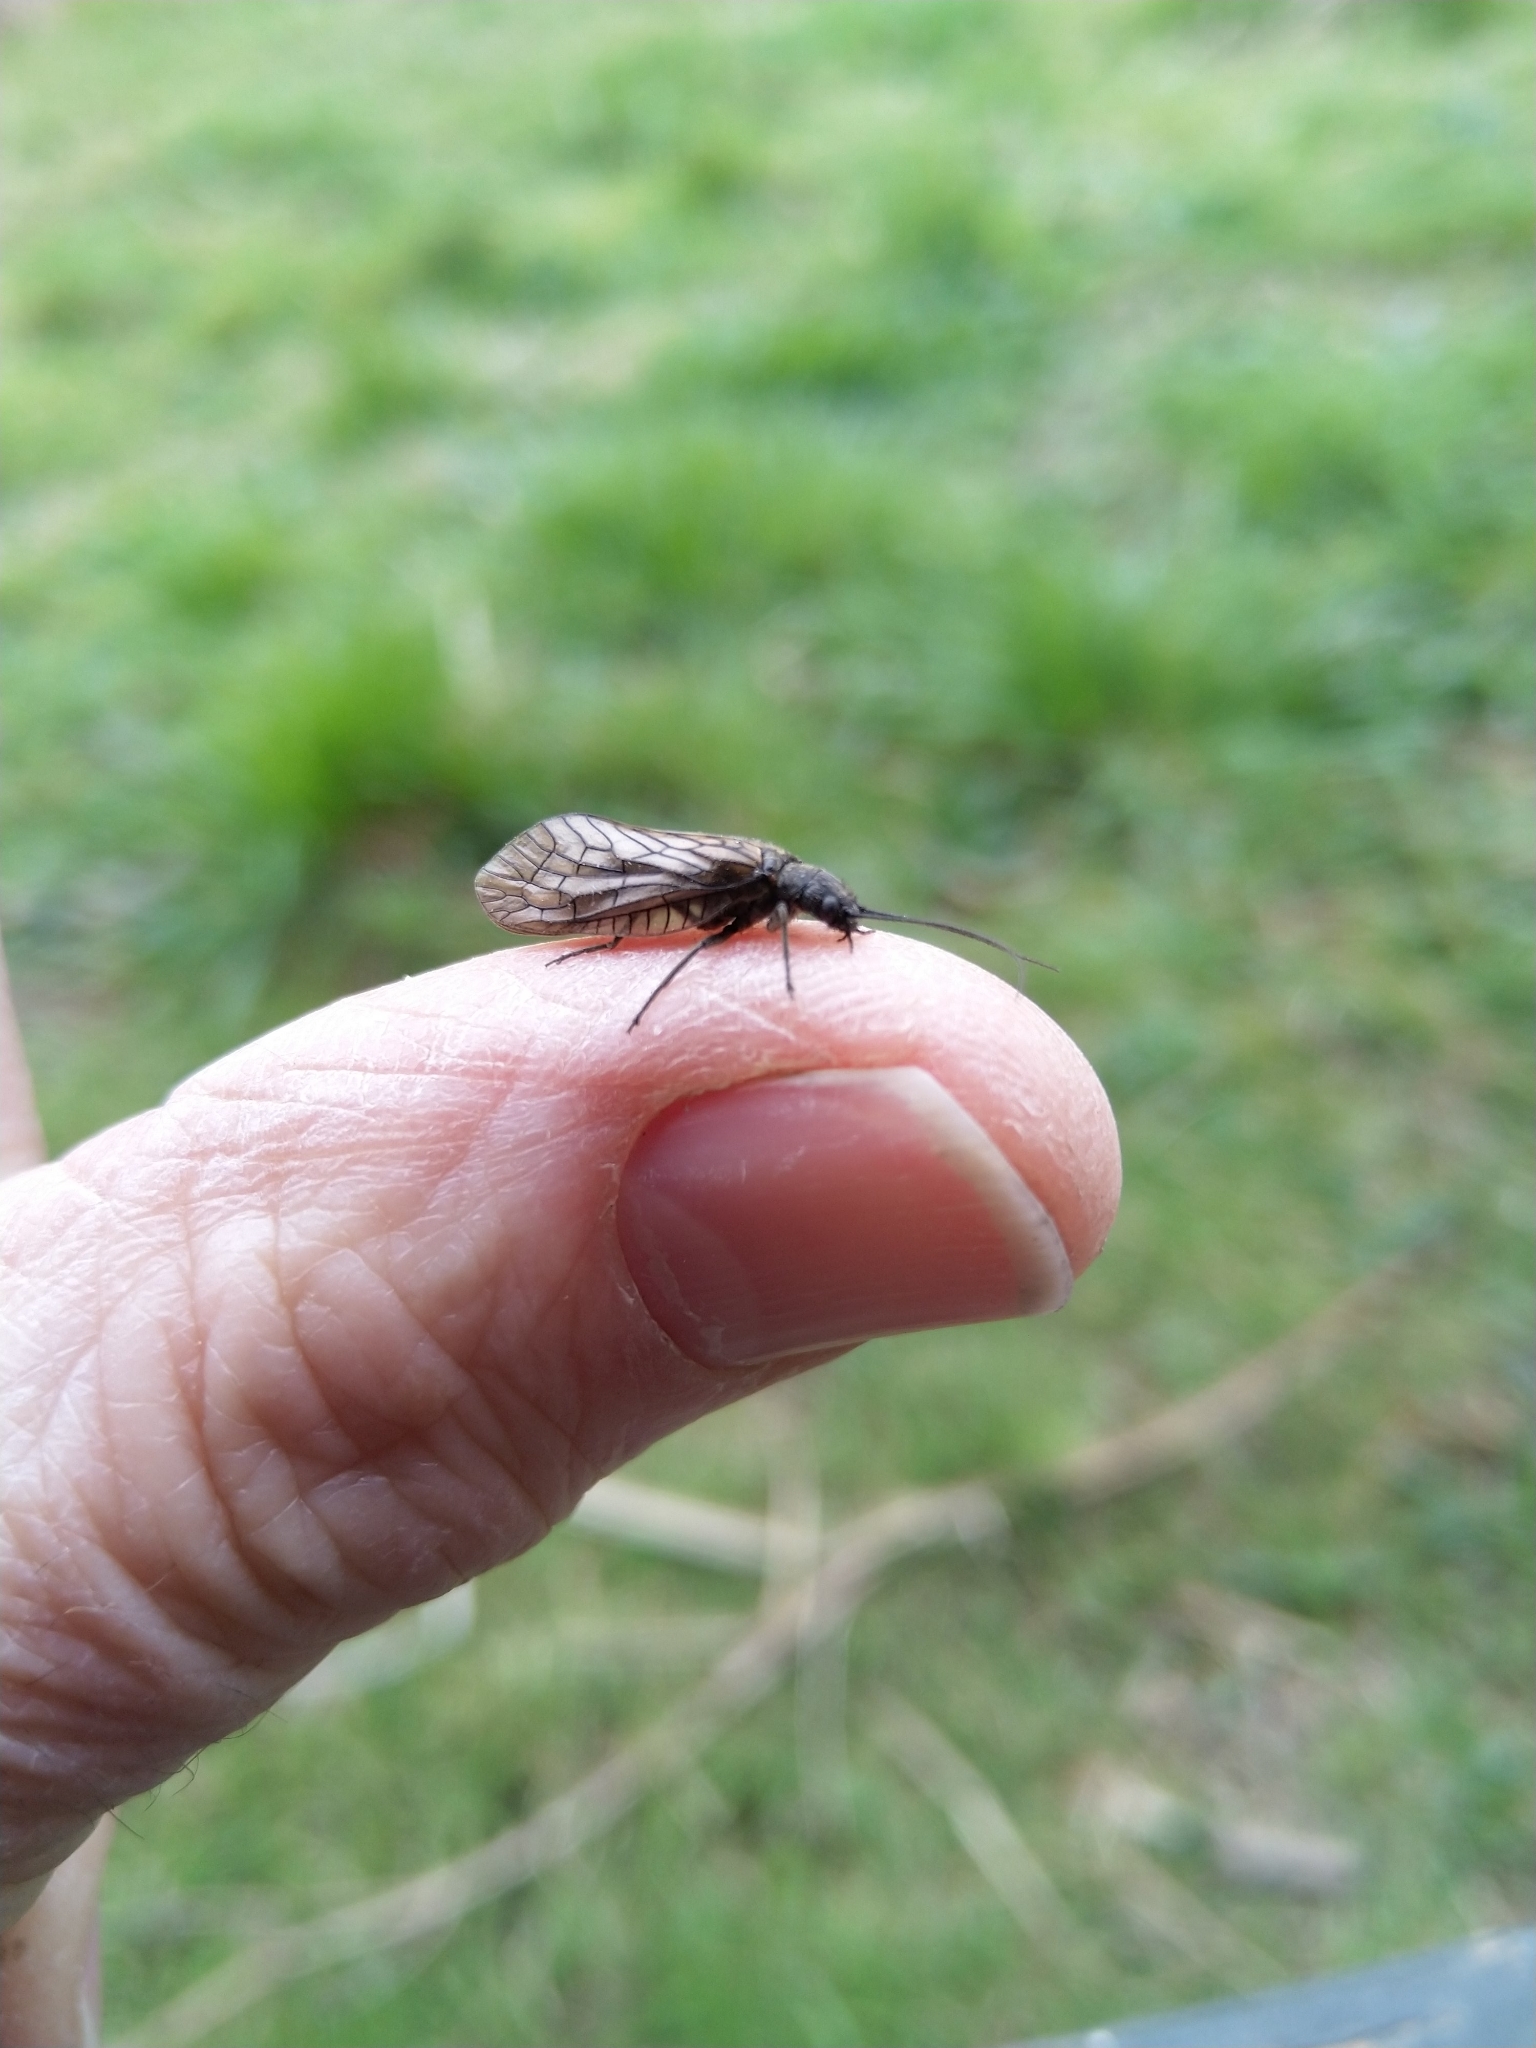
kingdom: Animalia
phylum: Arthropoda
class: Insecta
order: Megaloptera
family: Sialidae
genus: Sialis
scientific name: Sialis
